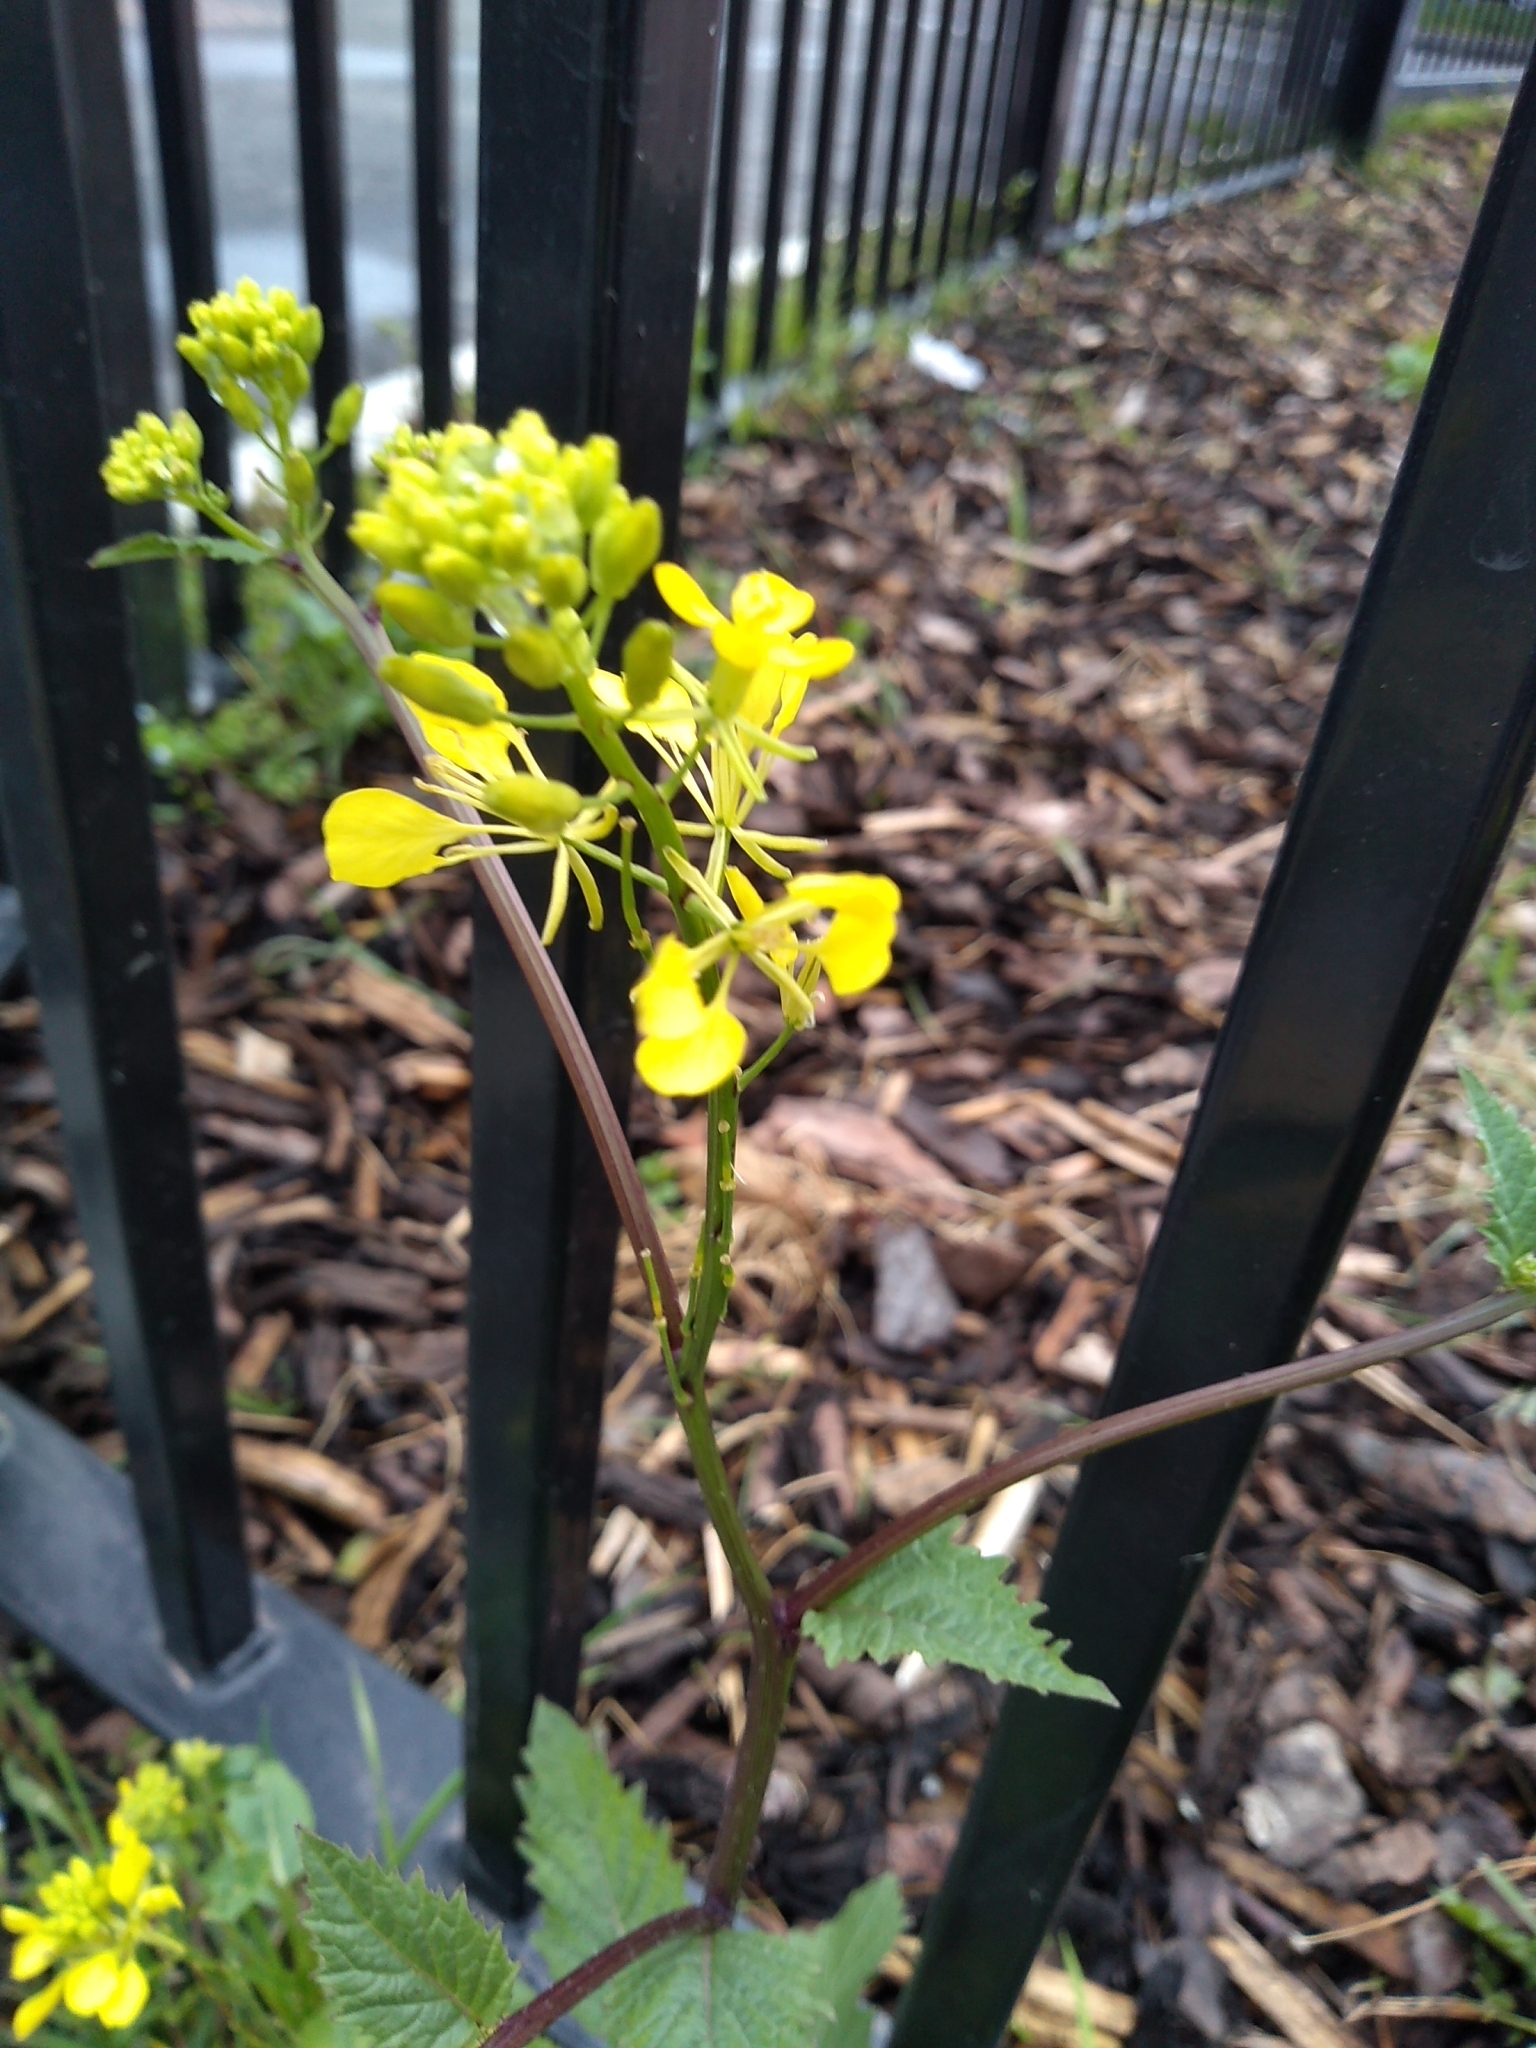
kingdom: Plantae
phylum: Tracheophyta
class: Magnoliopsida
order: Brassicales
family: Brassicaceae
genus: Sinapis
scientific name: Sinapis arvensis
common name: Charlock
